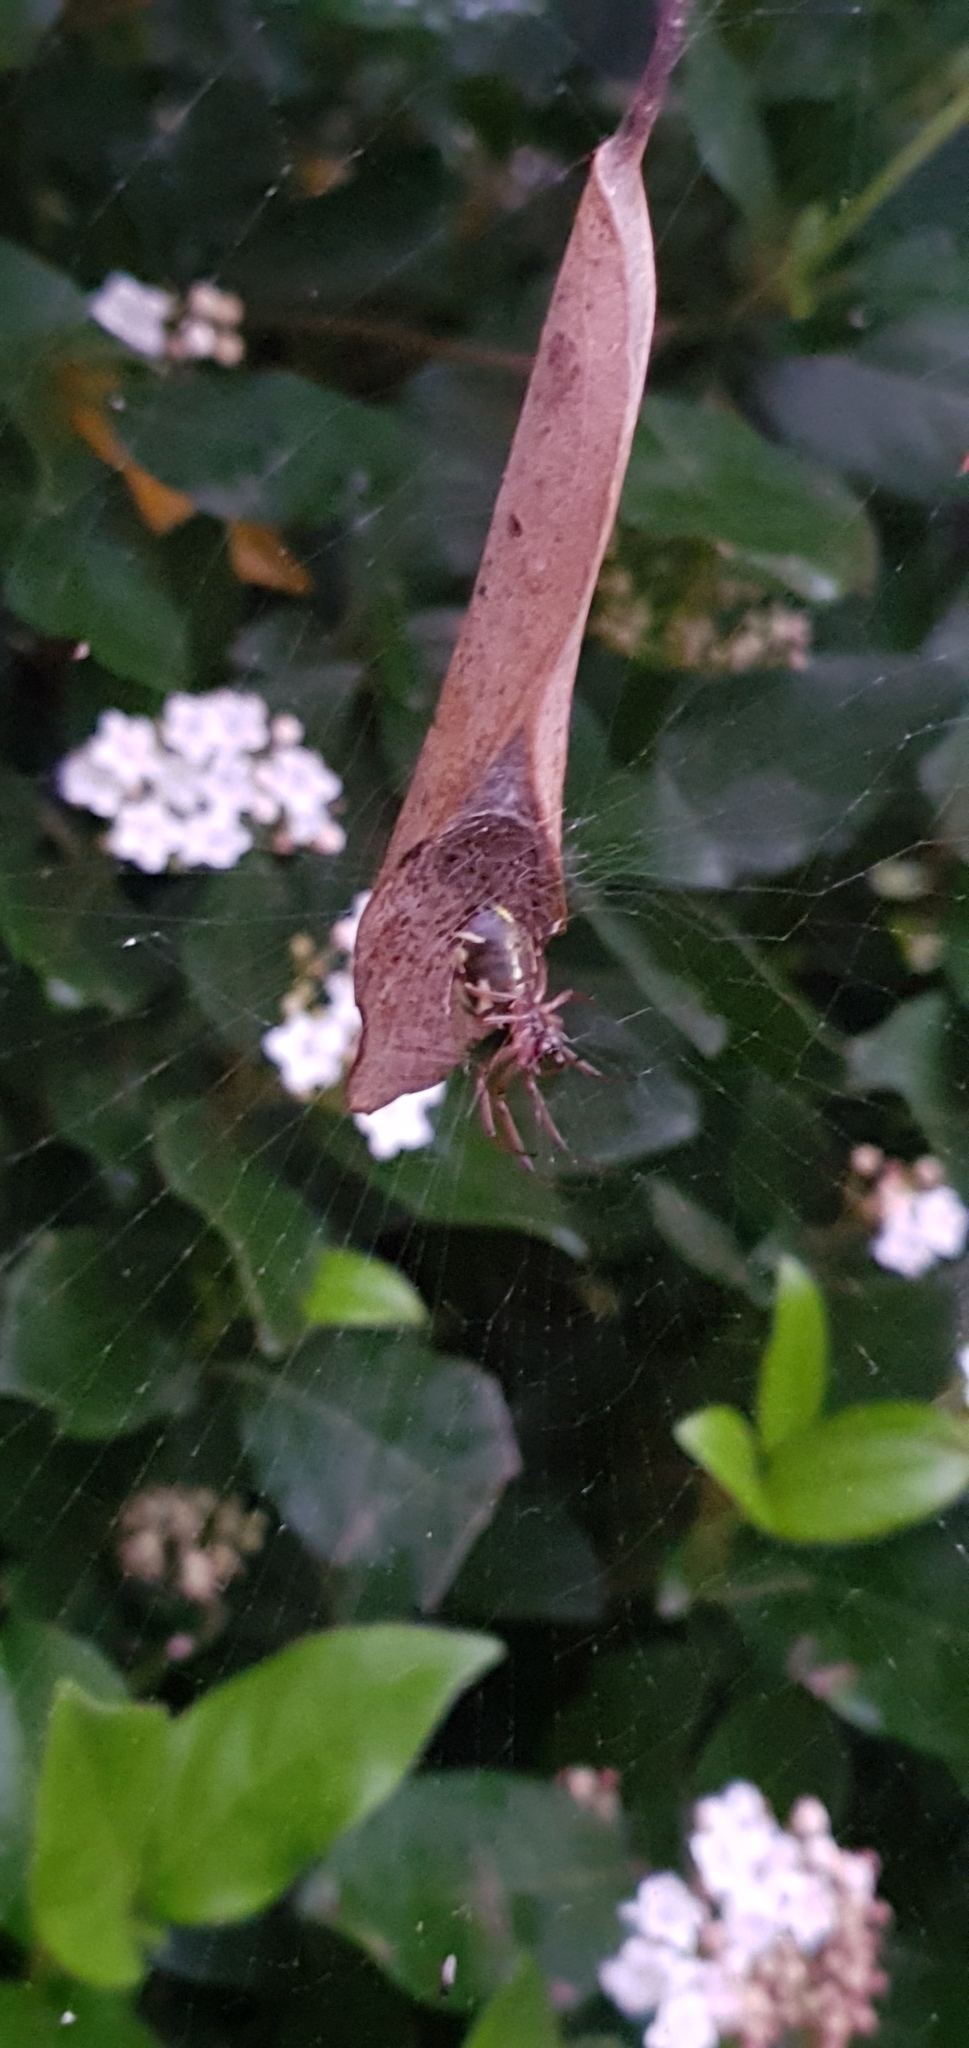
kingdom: Animalia
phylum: Arthropoda
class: Arachnida
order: Araneae
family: Araneidae
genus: Phonognatha
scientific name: Phonognatha graeffei
